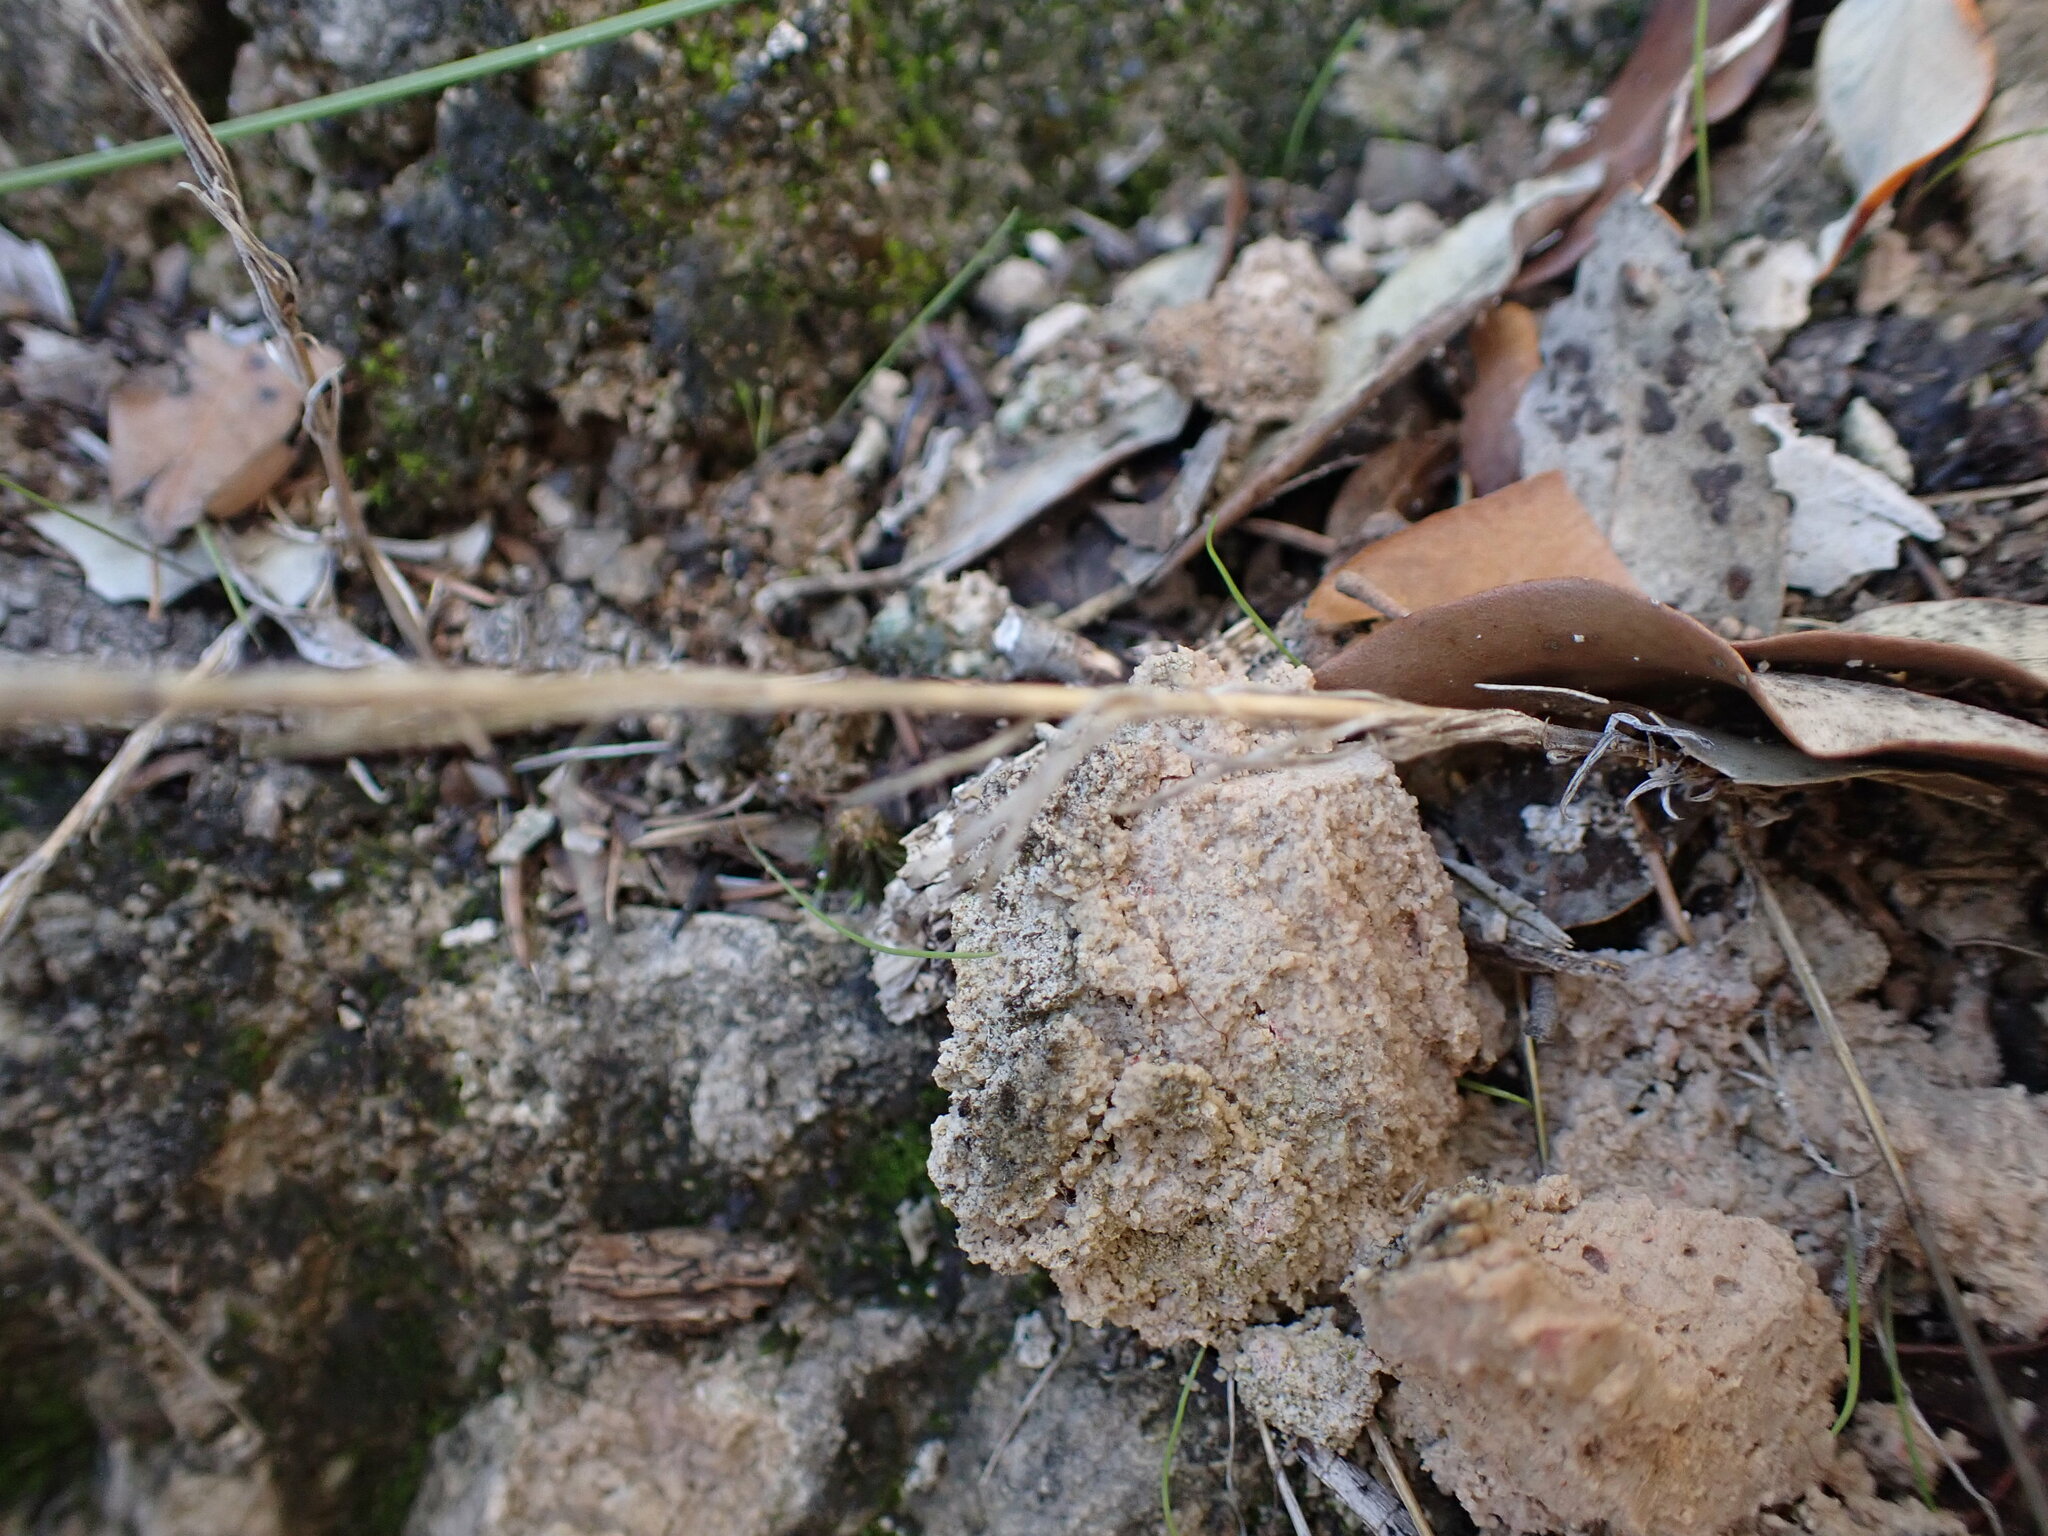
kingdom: Plantae
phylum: Tracheophyta
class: Magnoliopsida
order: Gentianales
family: Rubiaceae
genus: Crucianella
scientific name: Crucianella angustifolia
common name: Narrowleaf crucianella
